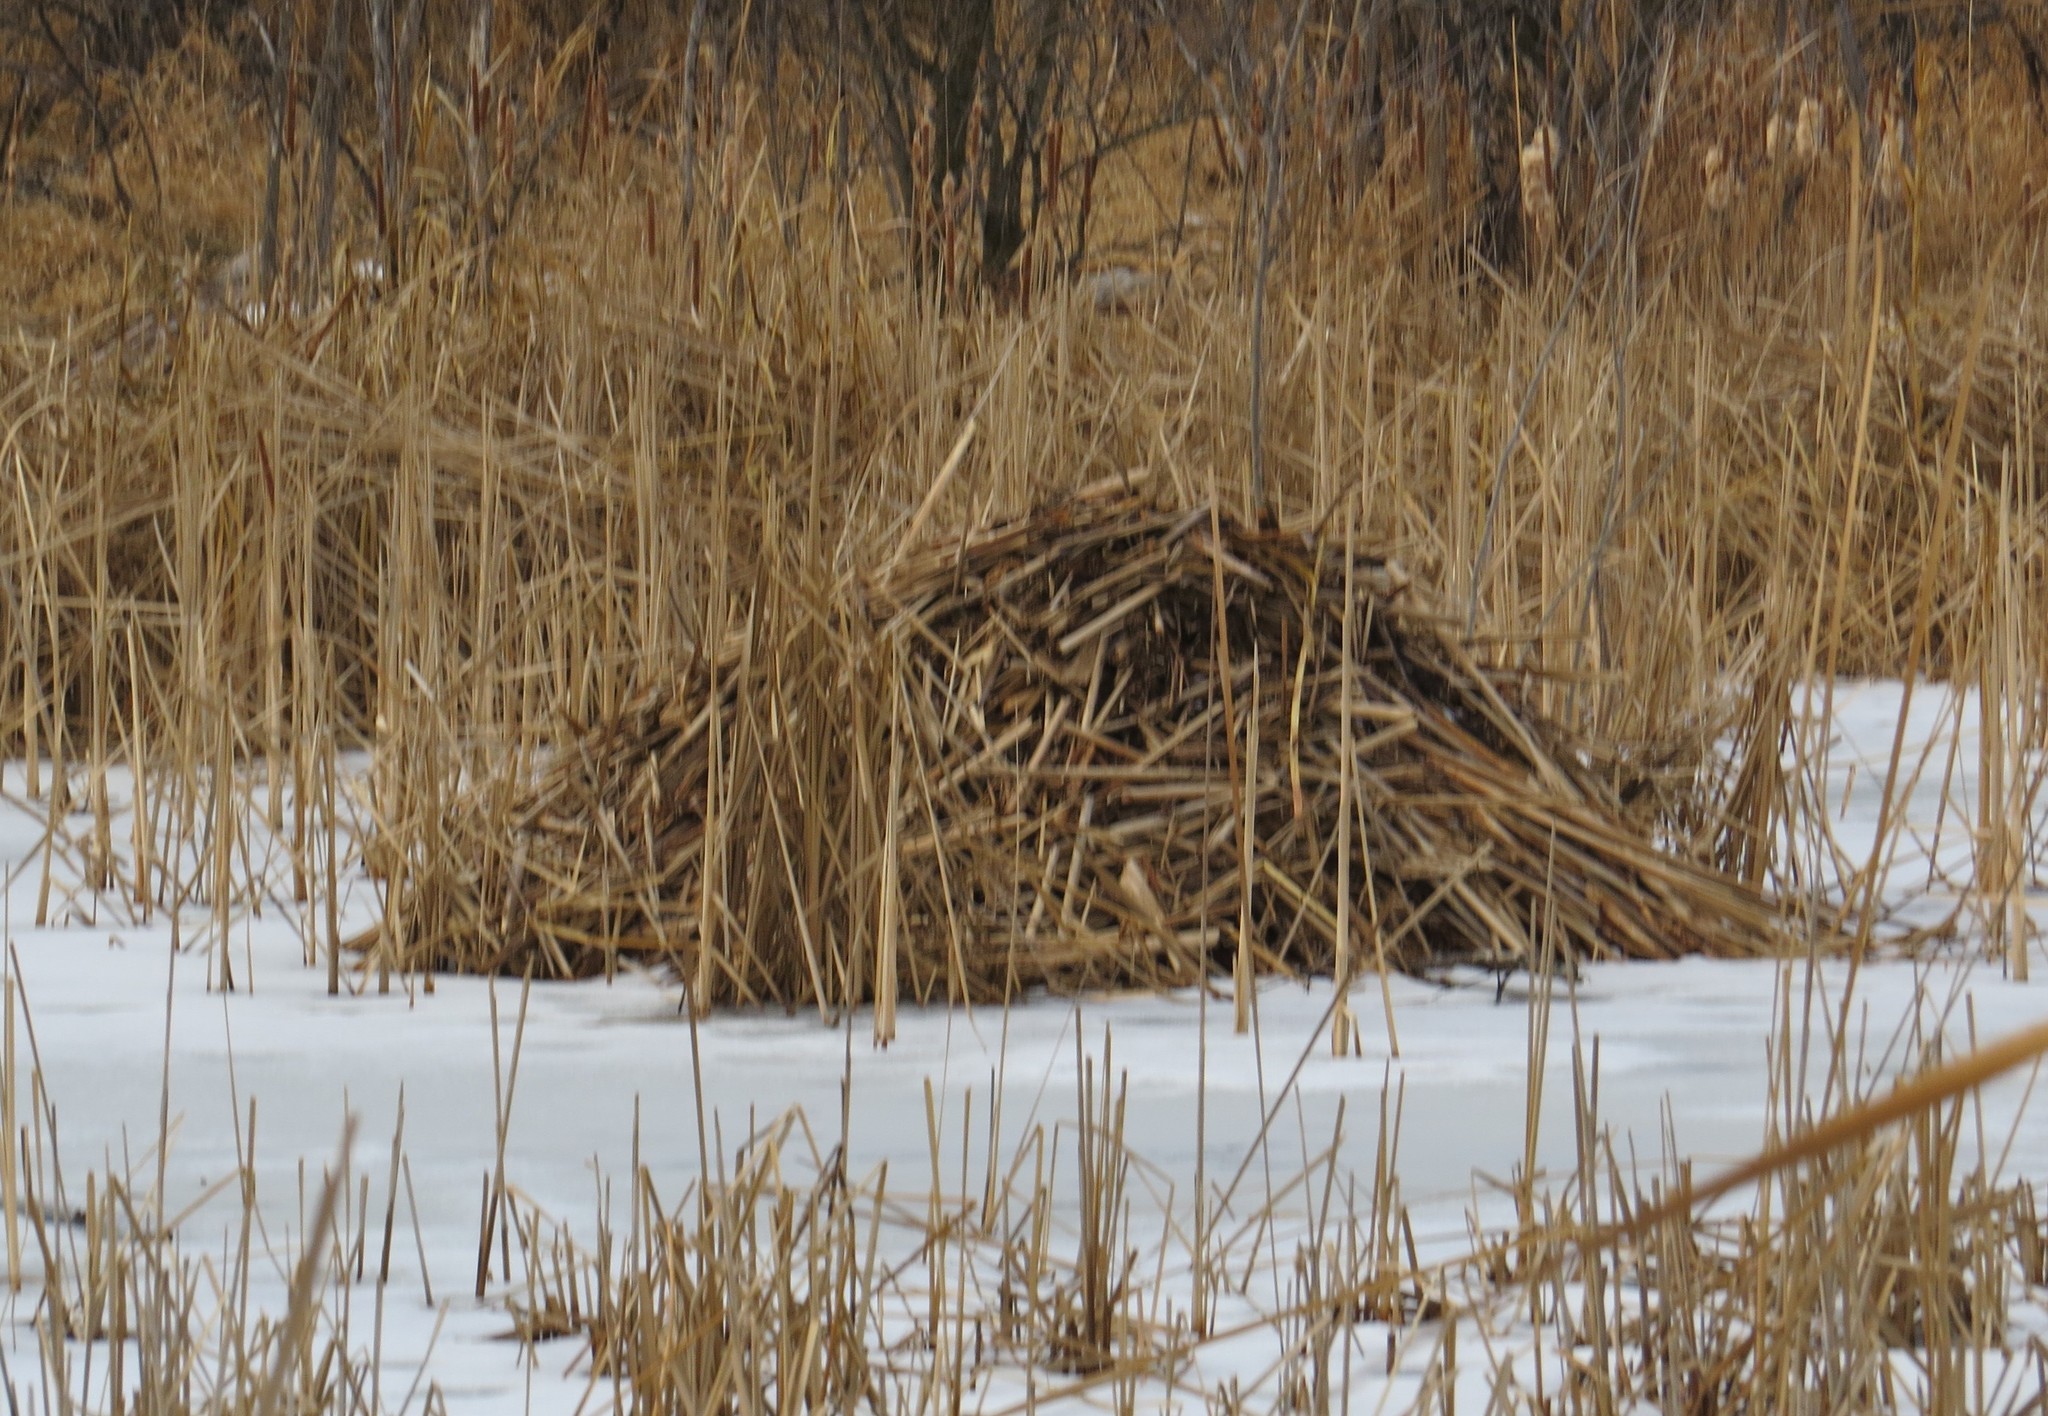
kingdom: Animalia
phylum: Chordata
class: Mammalia
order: Rodentia
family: Cricetidae
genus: Ondatra
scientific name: Ondatra zibethicus
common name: Muskrat
